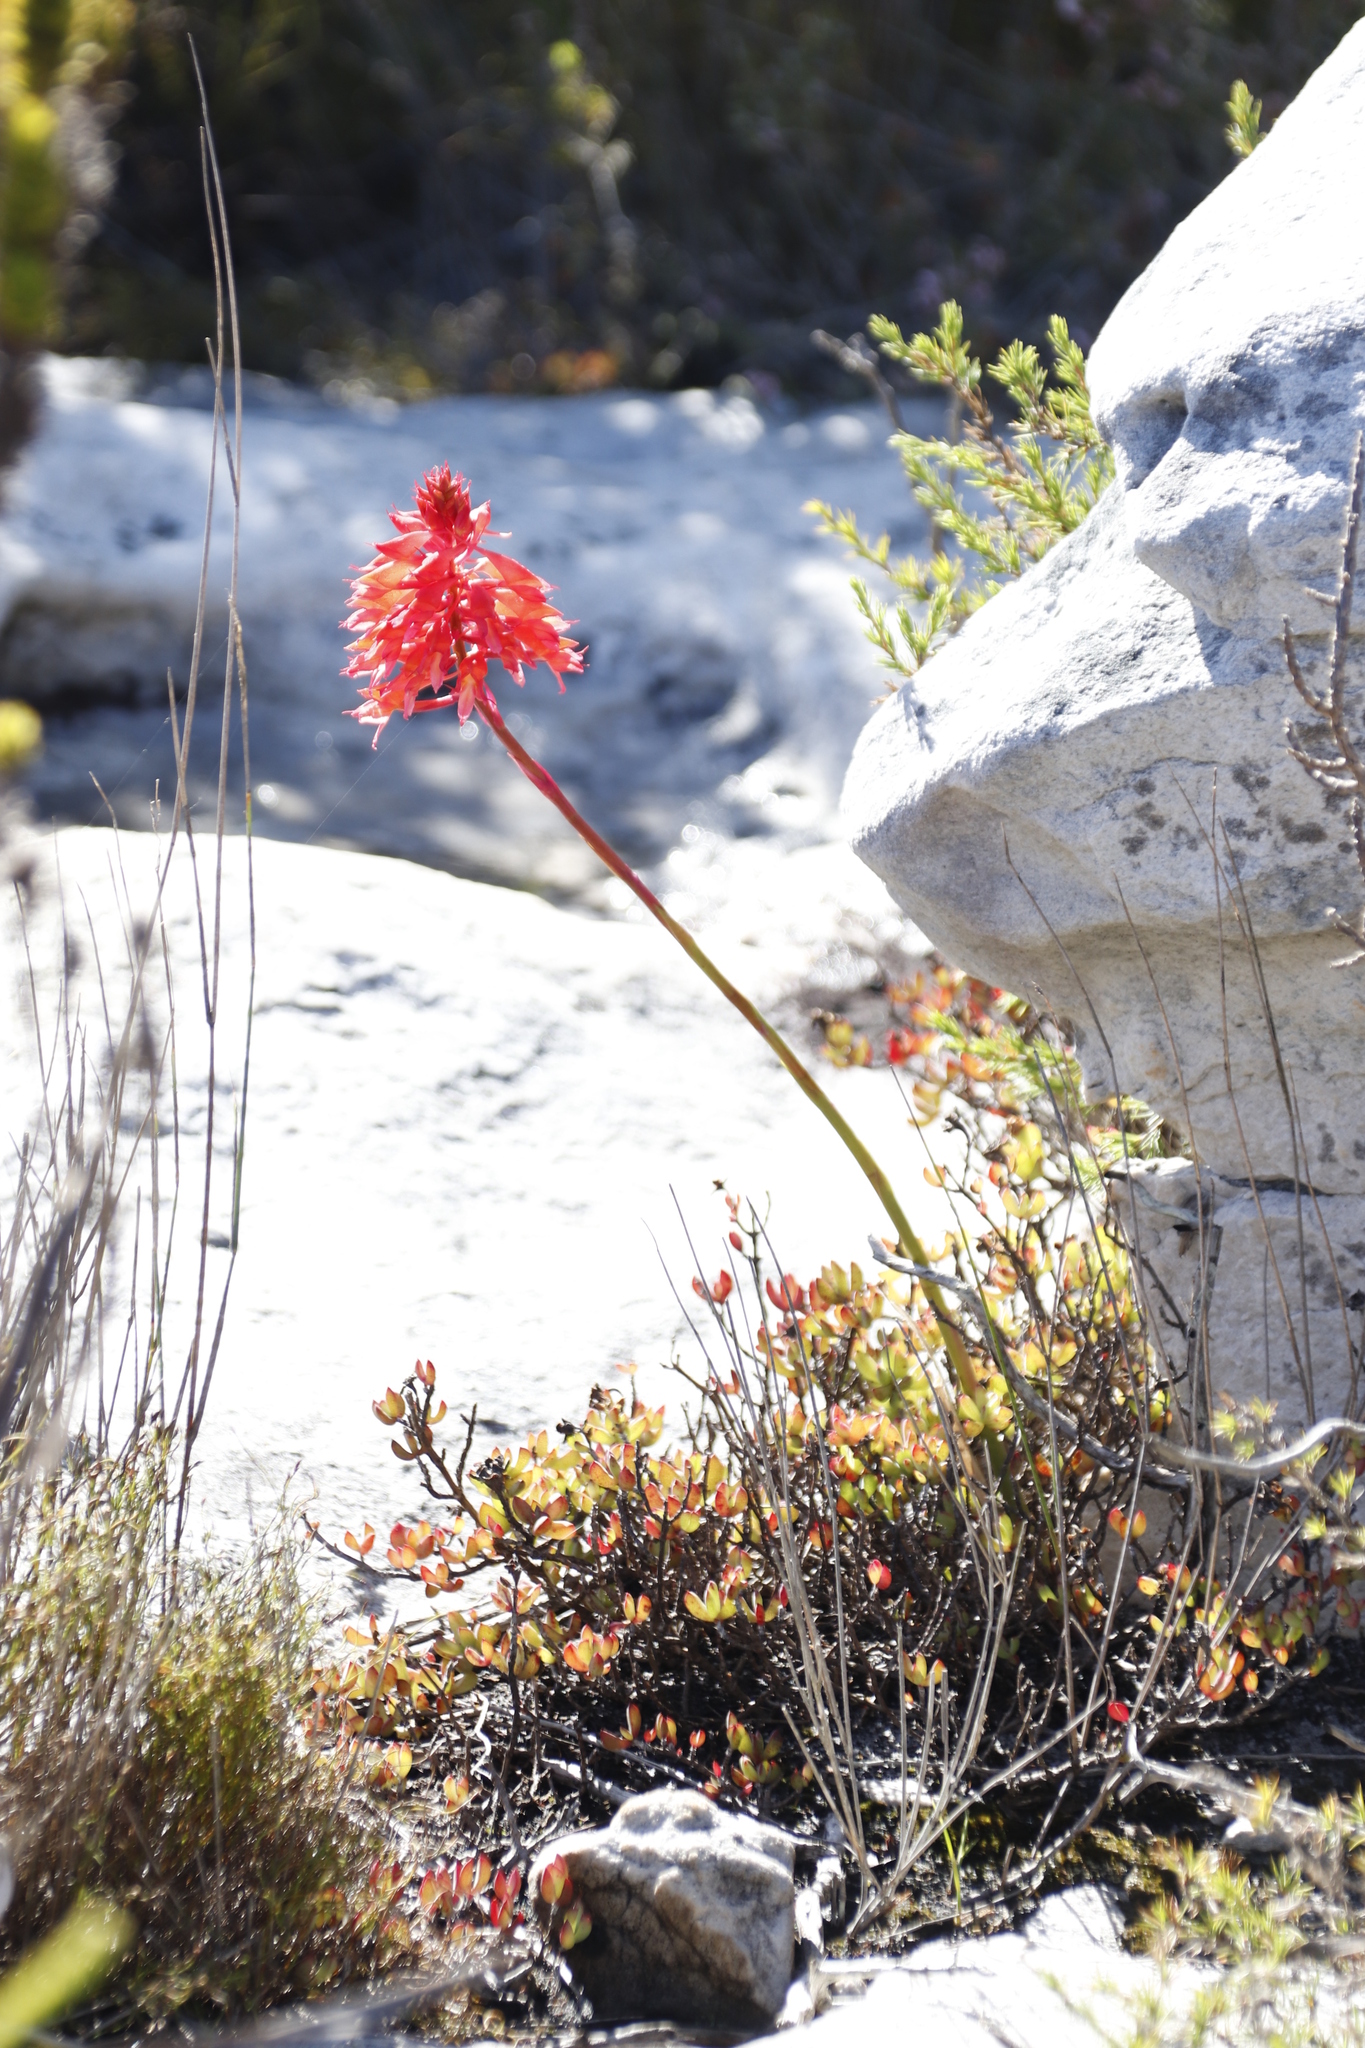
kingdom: Plantae
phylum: Tracheophyta
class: Liliopsida
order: Asparagales
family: Orchidaceae
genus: Disa
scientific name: Disa ferruginea
